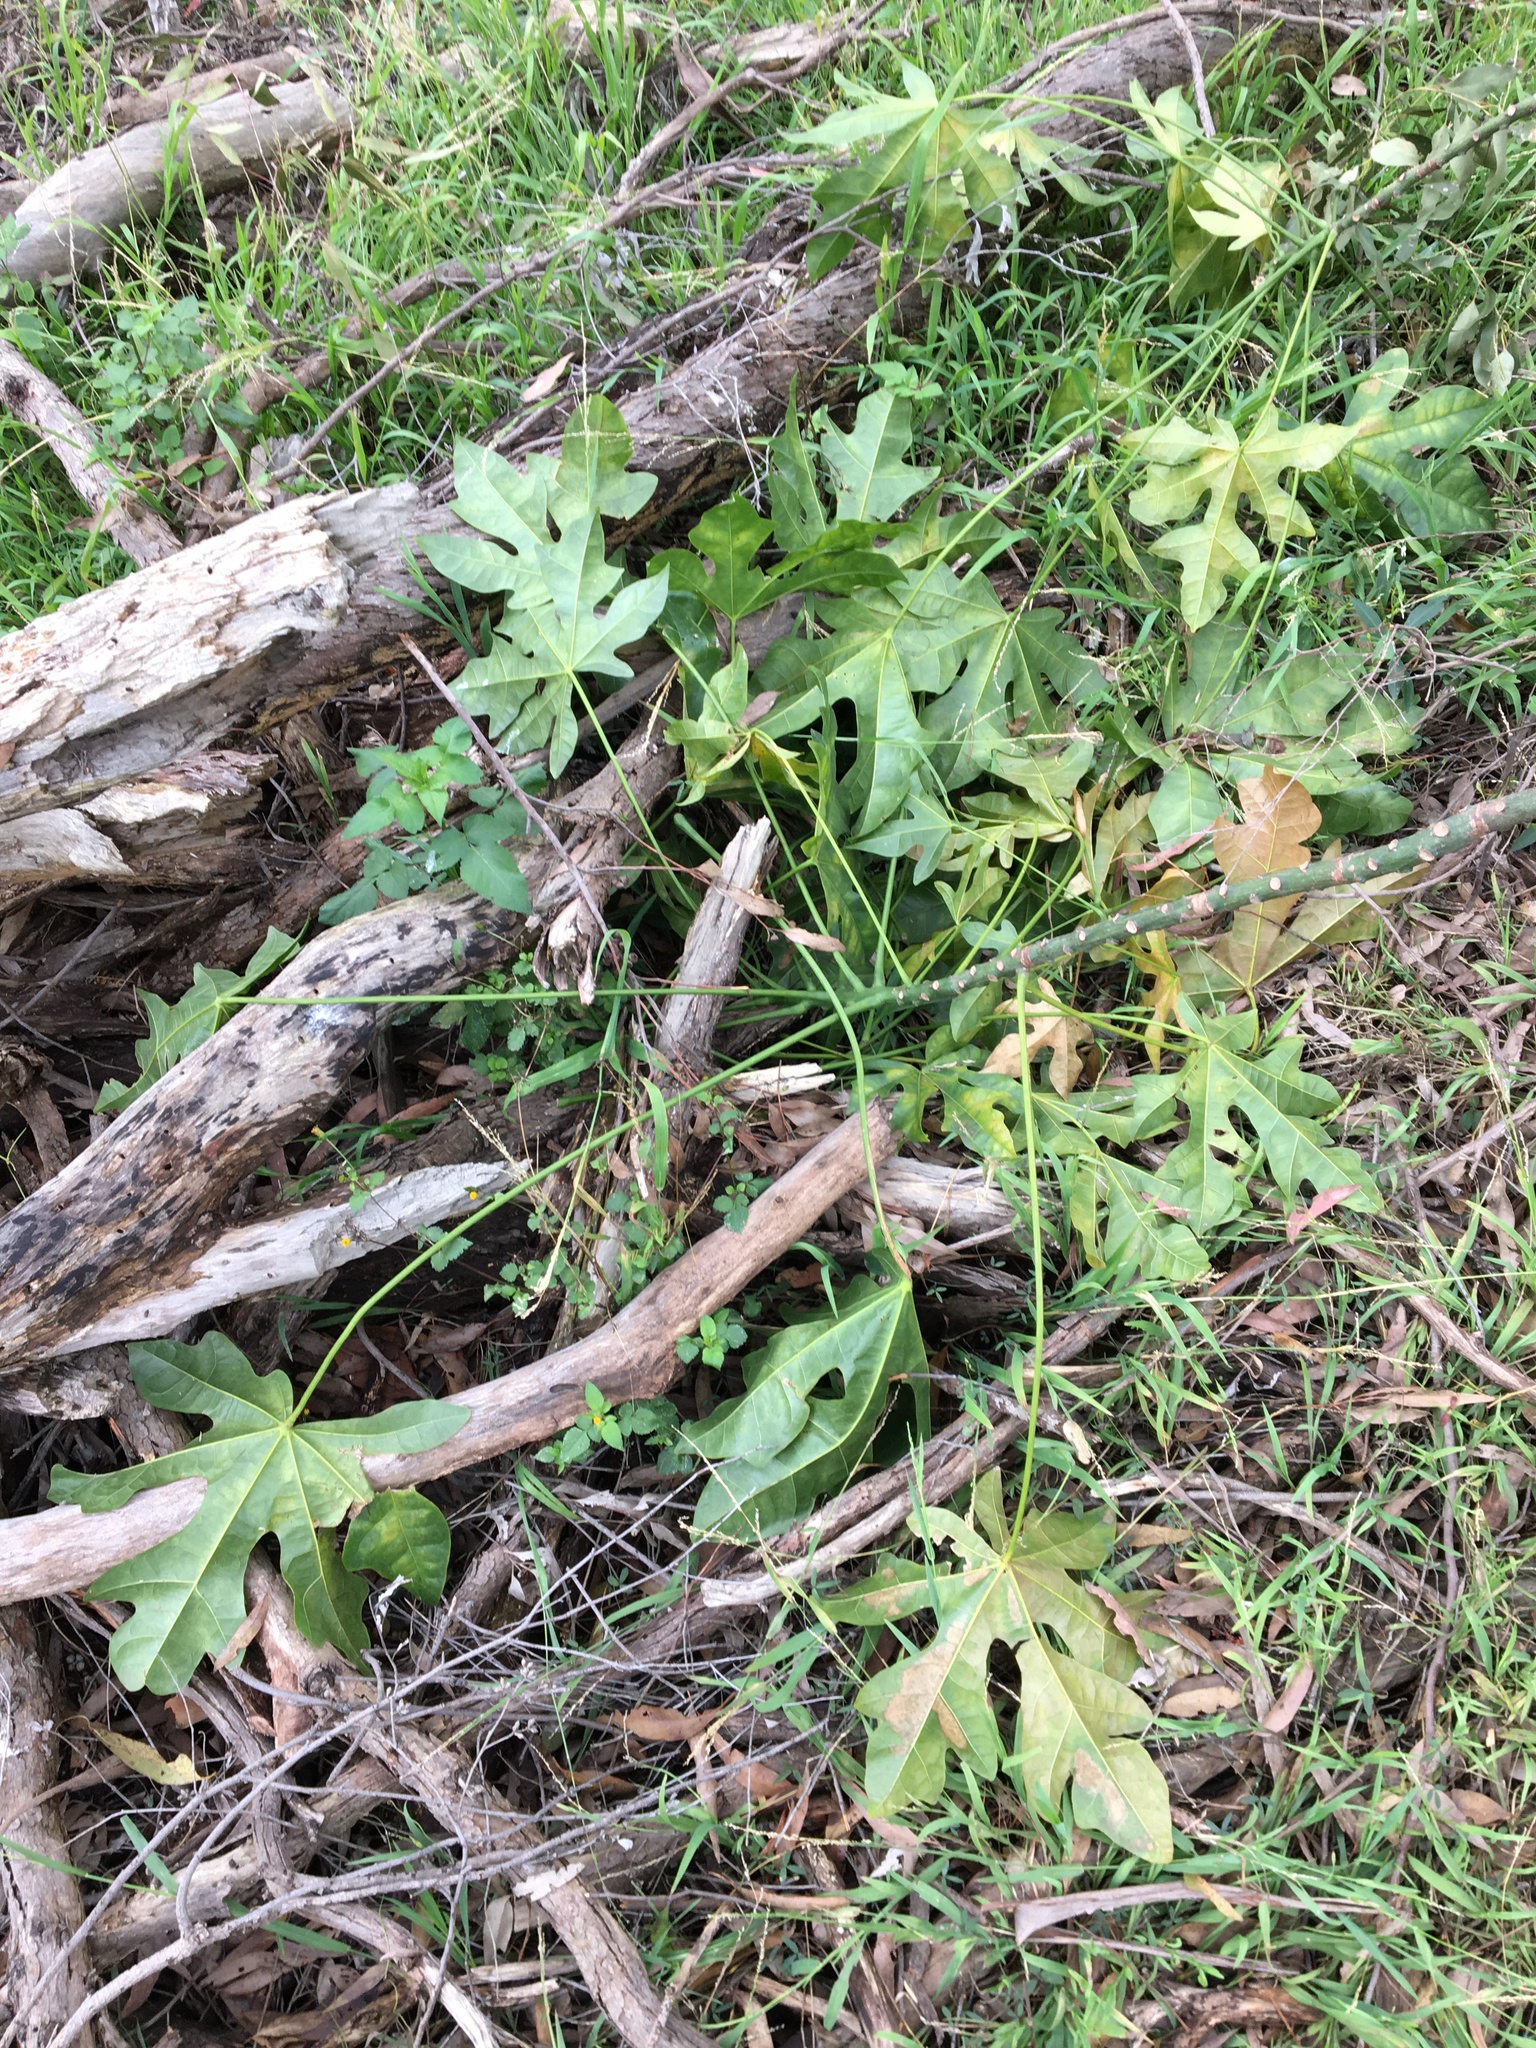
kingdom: Plantae
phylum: Tracheophyta
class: Magnoliopsida
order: Malvales
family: Malvaceae
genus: Brachychiton
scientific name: Brachychiton acerifolius
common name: Illawarra flame tree
